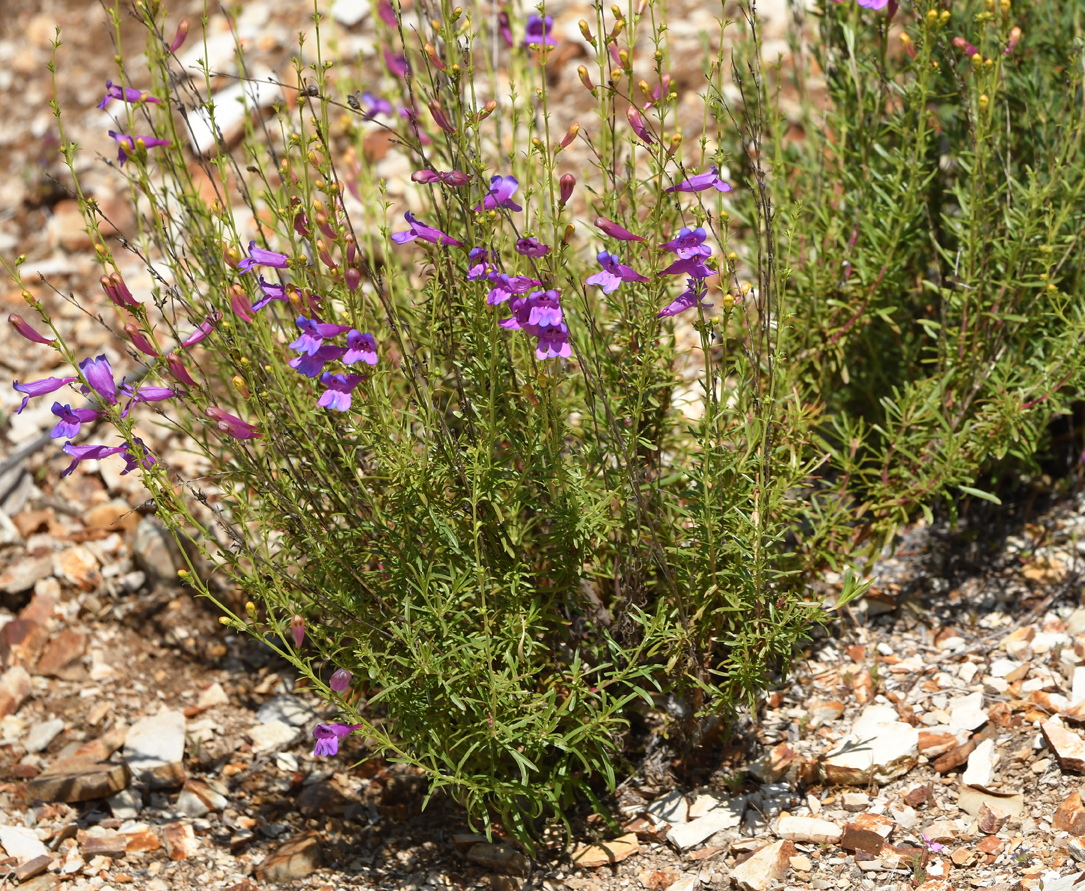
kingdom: Plantae
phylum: Tracheophyta
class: Magnoliopsida
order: Lamiales
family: Plantaginaceae
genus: Penstemon
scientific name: Penstemon heterophyllus
